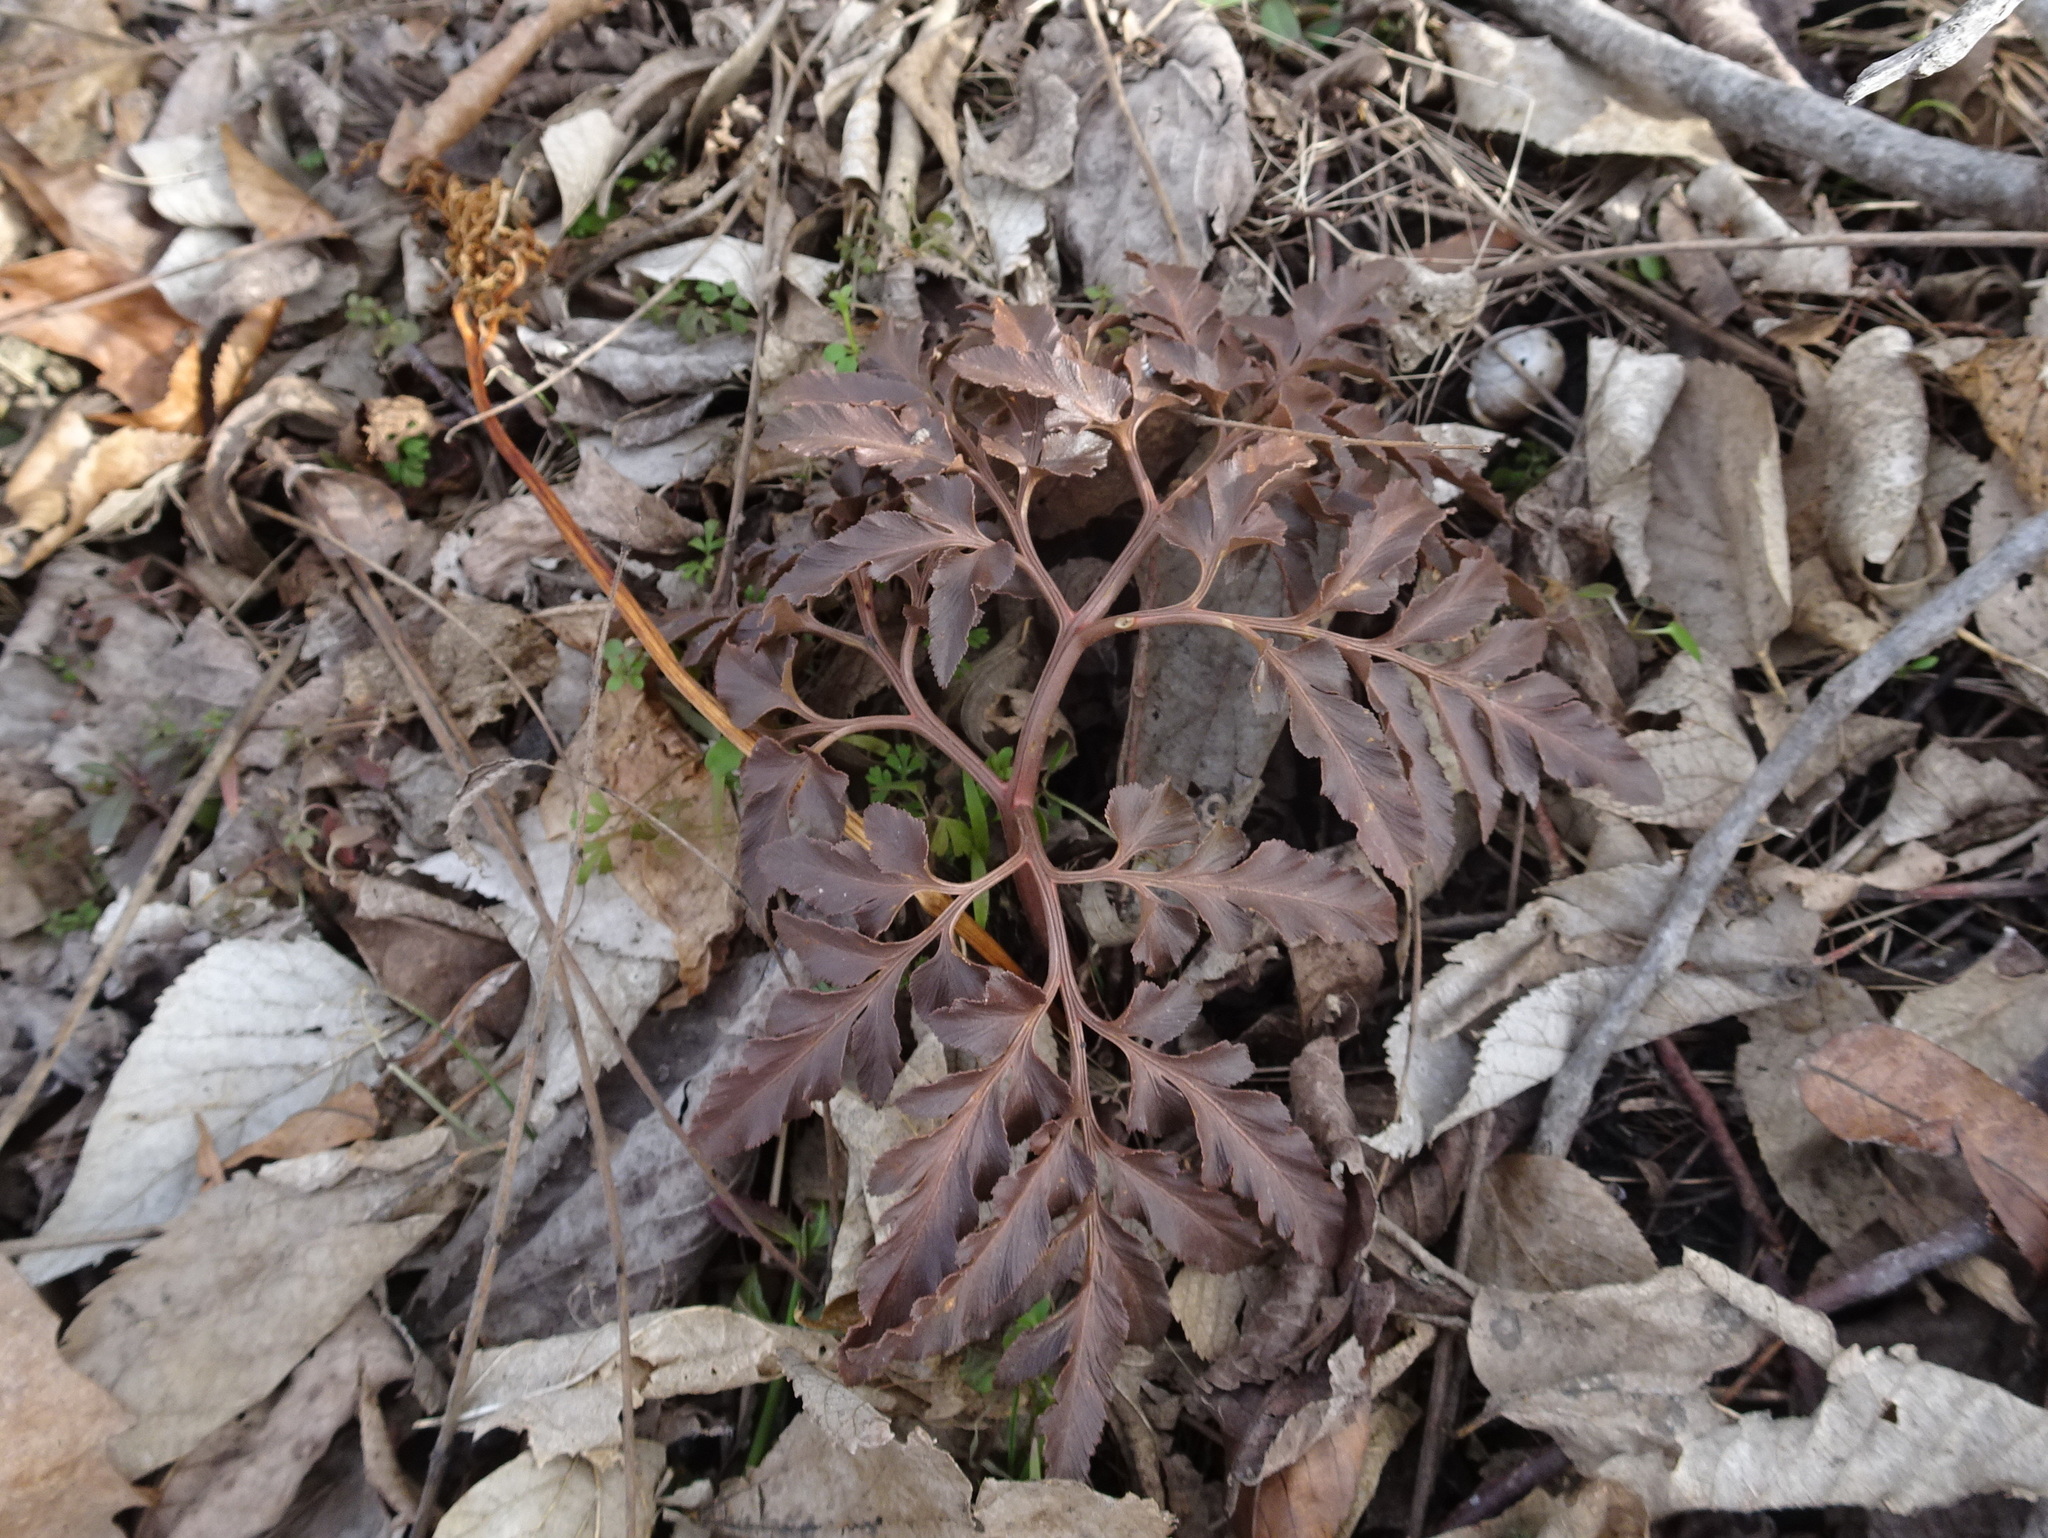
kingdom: Plantae
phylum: Tracheophyta
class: Polypodiopsida
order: Ophioglossales
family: Ophioglossaceae
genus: Sceptridium
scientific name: Sceptridium dissectum
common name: Cut-leaved grapefern
